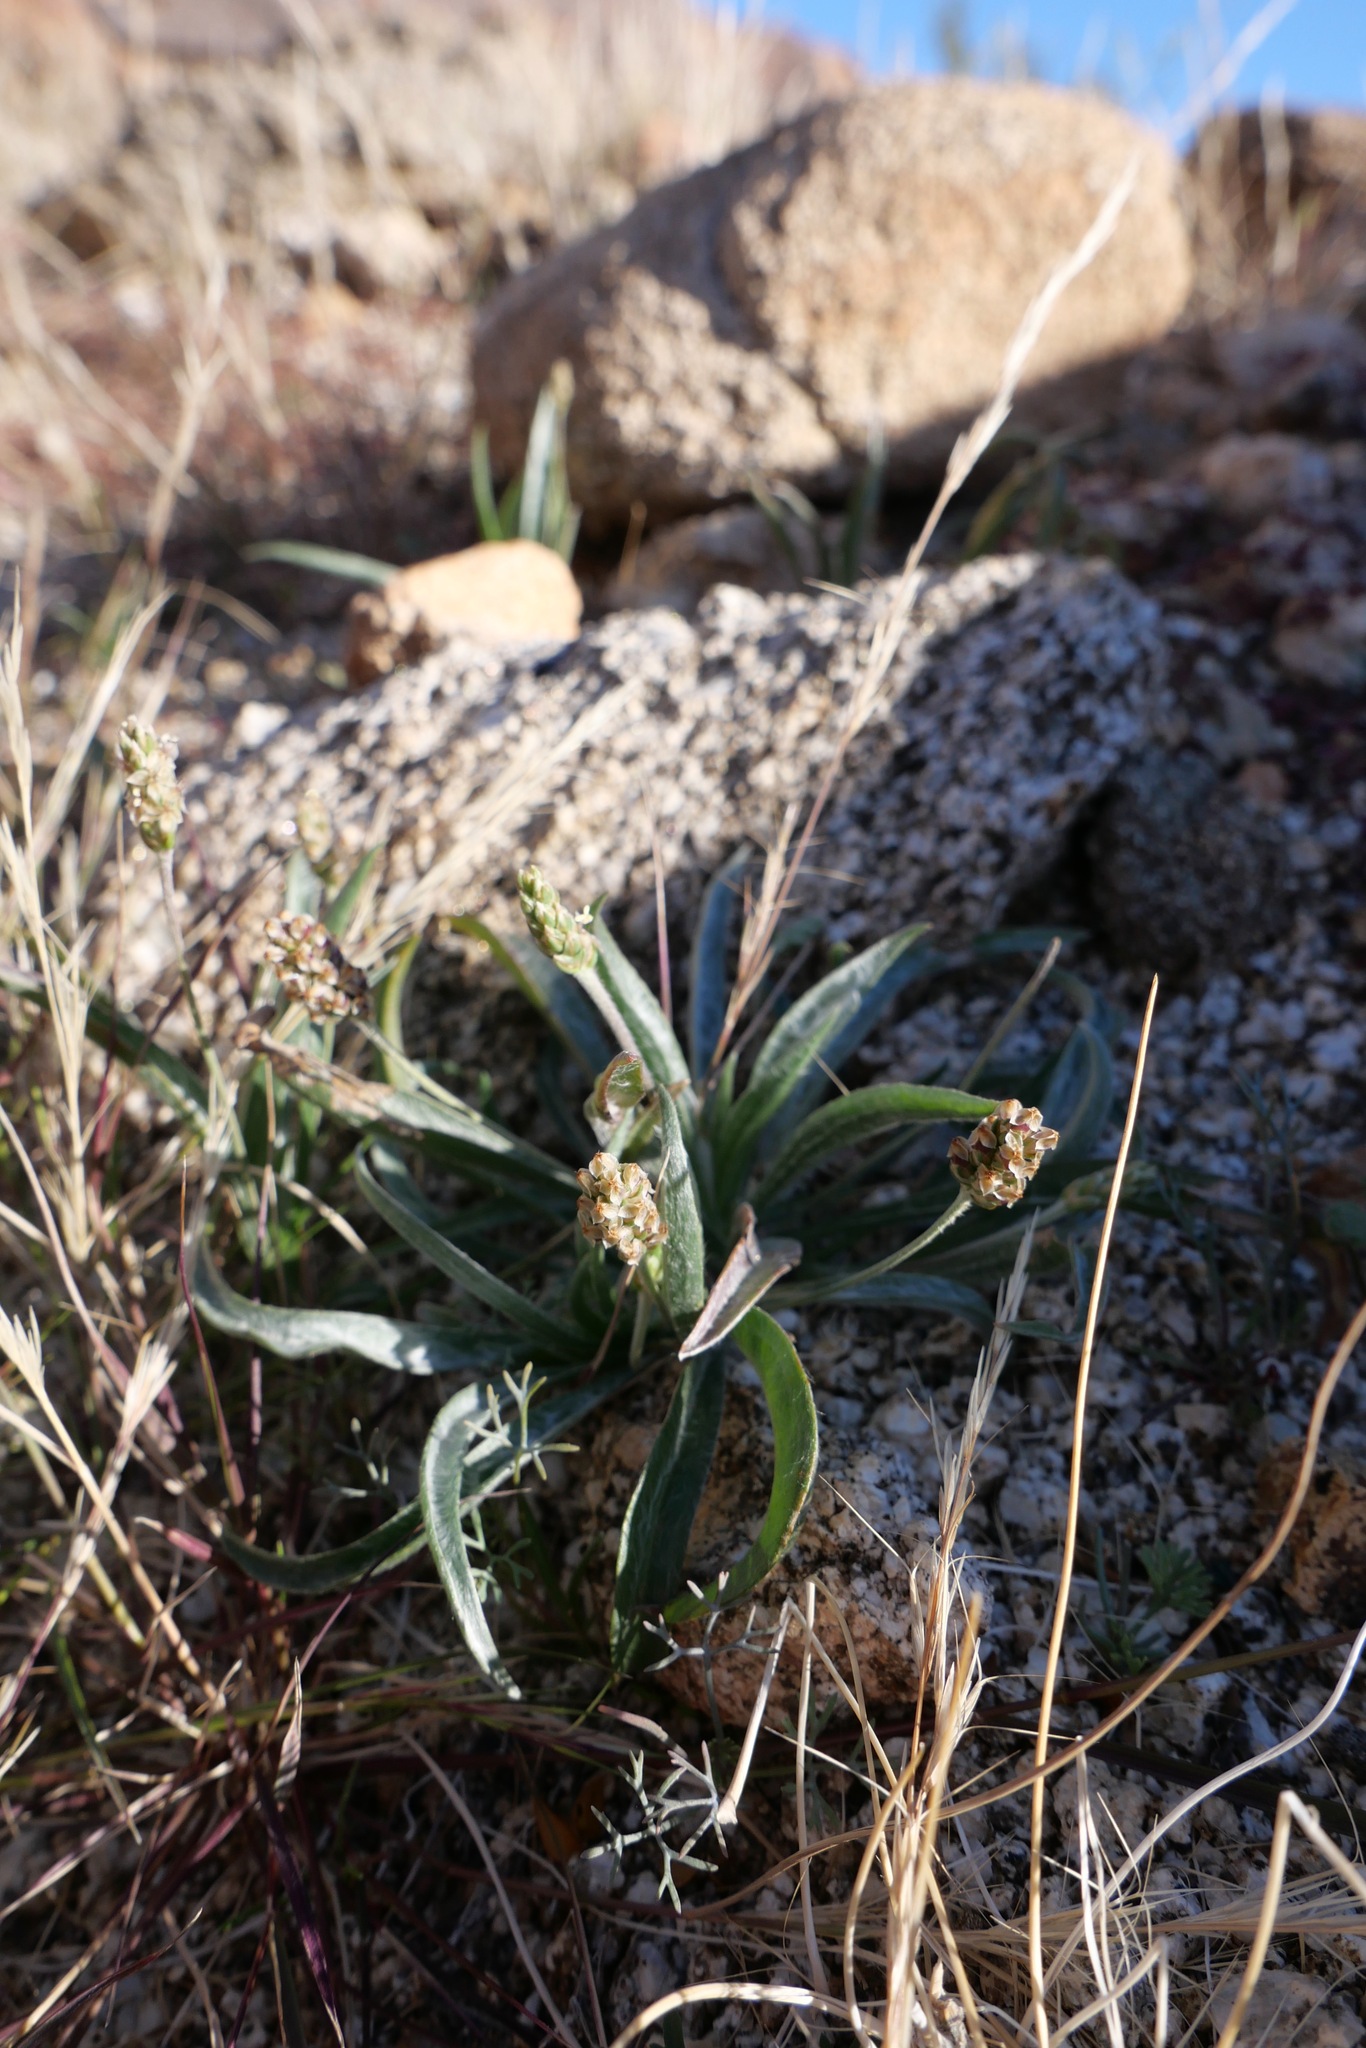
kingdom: Plantae
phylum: Tracheophyta
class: Magnoliopsida
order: Lamiales
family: Plantaginaceae
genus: Plantago
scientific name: Plantago ovata
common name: Blond plantain
